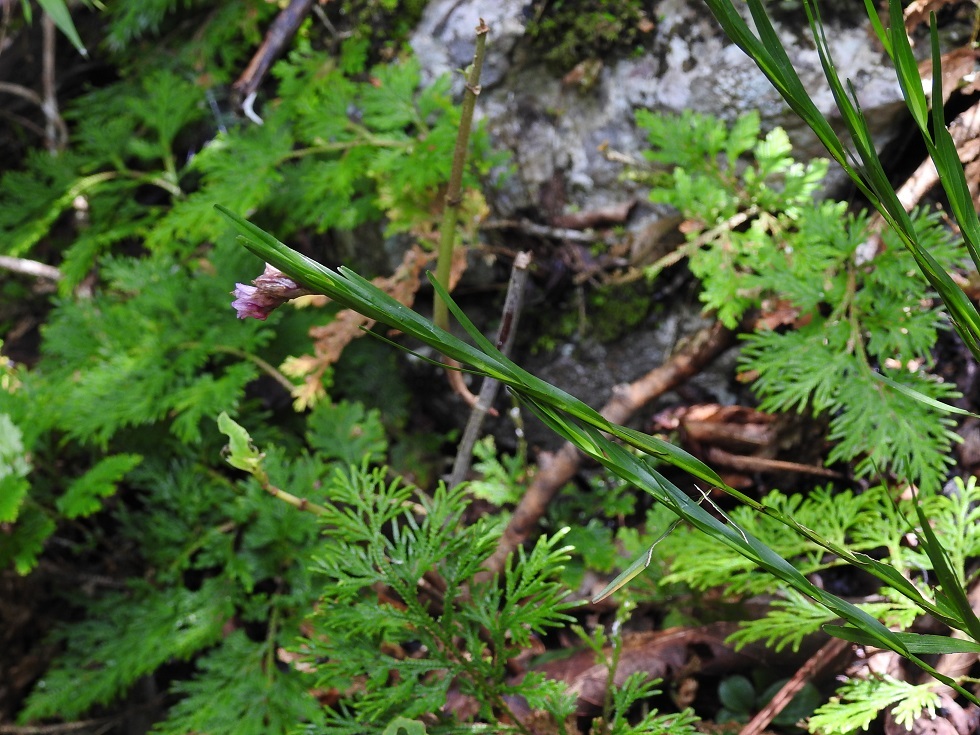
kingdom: Plantae
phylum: Tracheophyta
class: Liliopsida
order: Asparagales
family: Orchidaceae
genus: Isochilus
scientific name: Isochilus major
